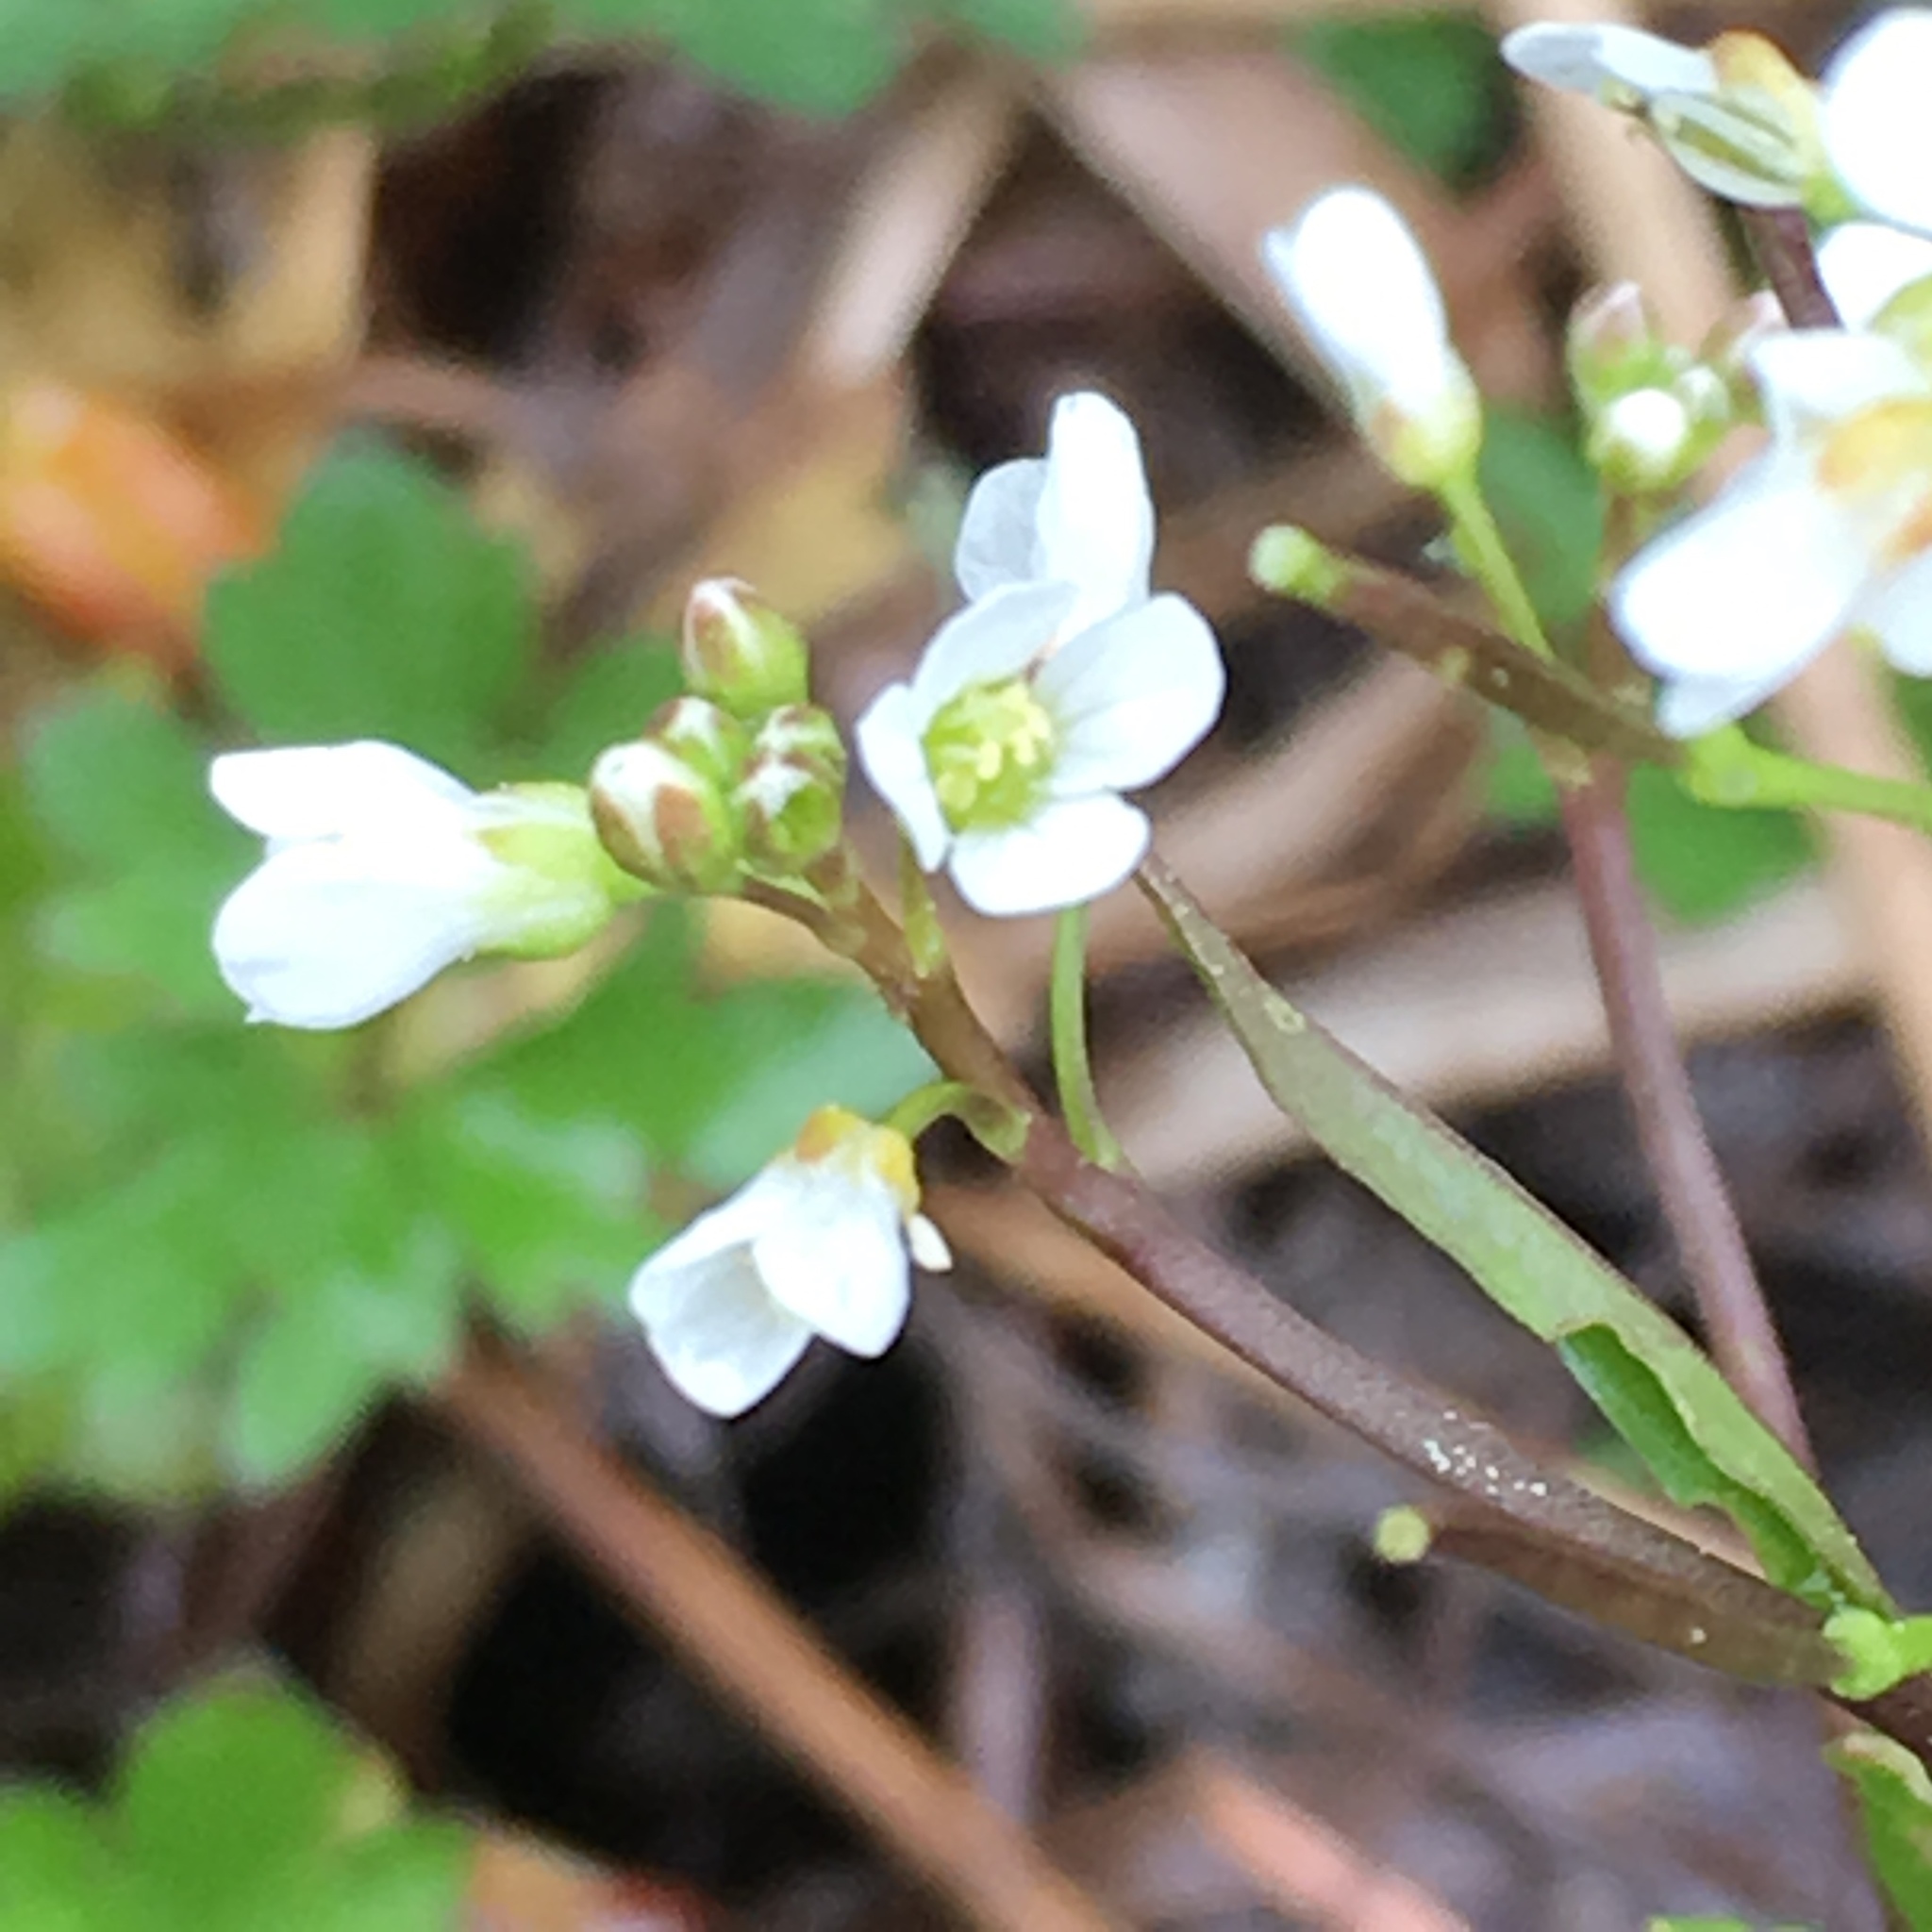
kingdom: Plantae
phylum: Tracheophyta
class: Magnoliopsida
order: Brassicales
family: Brassicaceae
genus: Cardamine
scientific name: Cardamine breweri
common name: Brewer's bittercress
